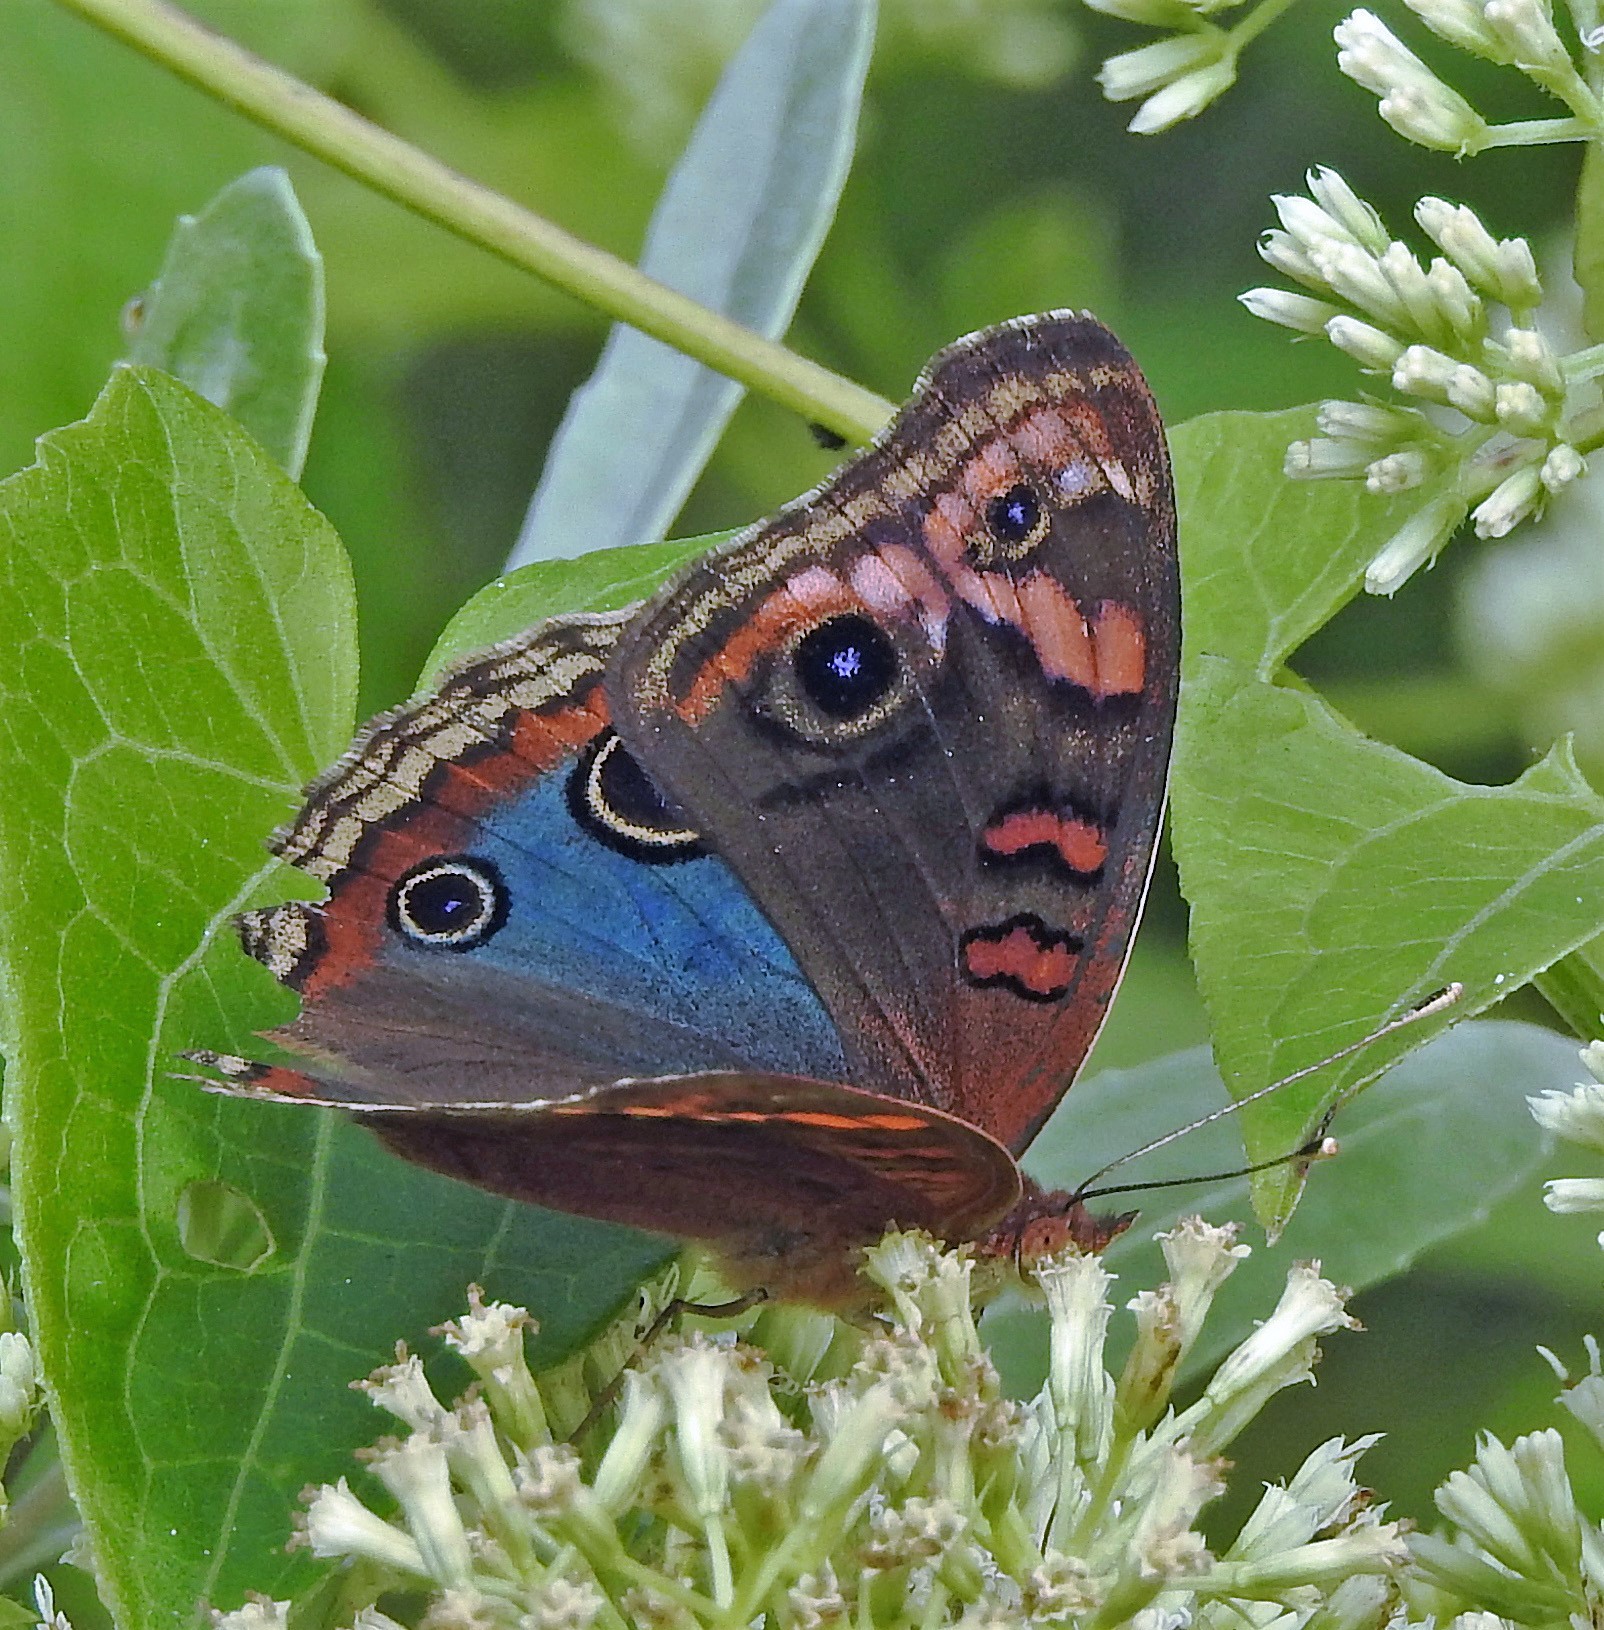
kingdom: Animalia
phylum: Arthropoda
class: Insecta
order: Lepidoptera
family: Nymphalidae
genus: Junonia
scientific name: Junonia lavinia
